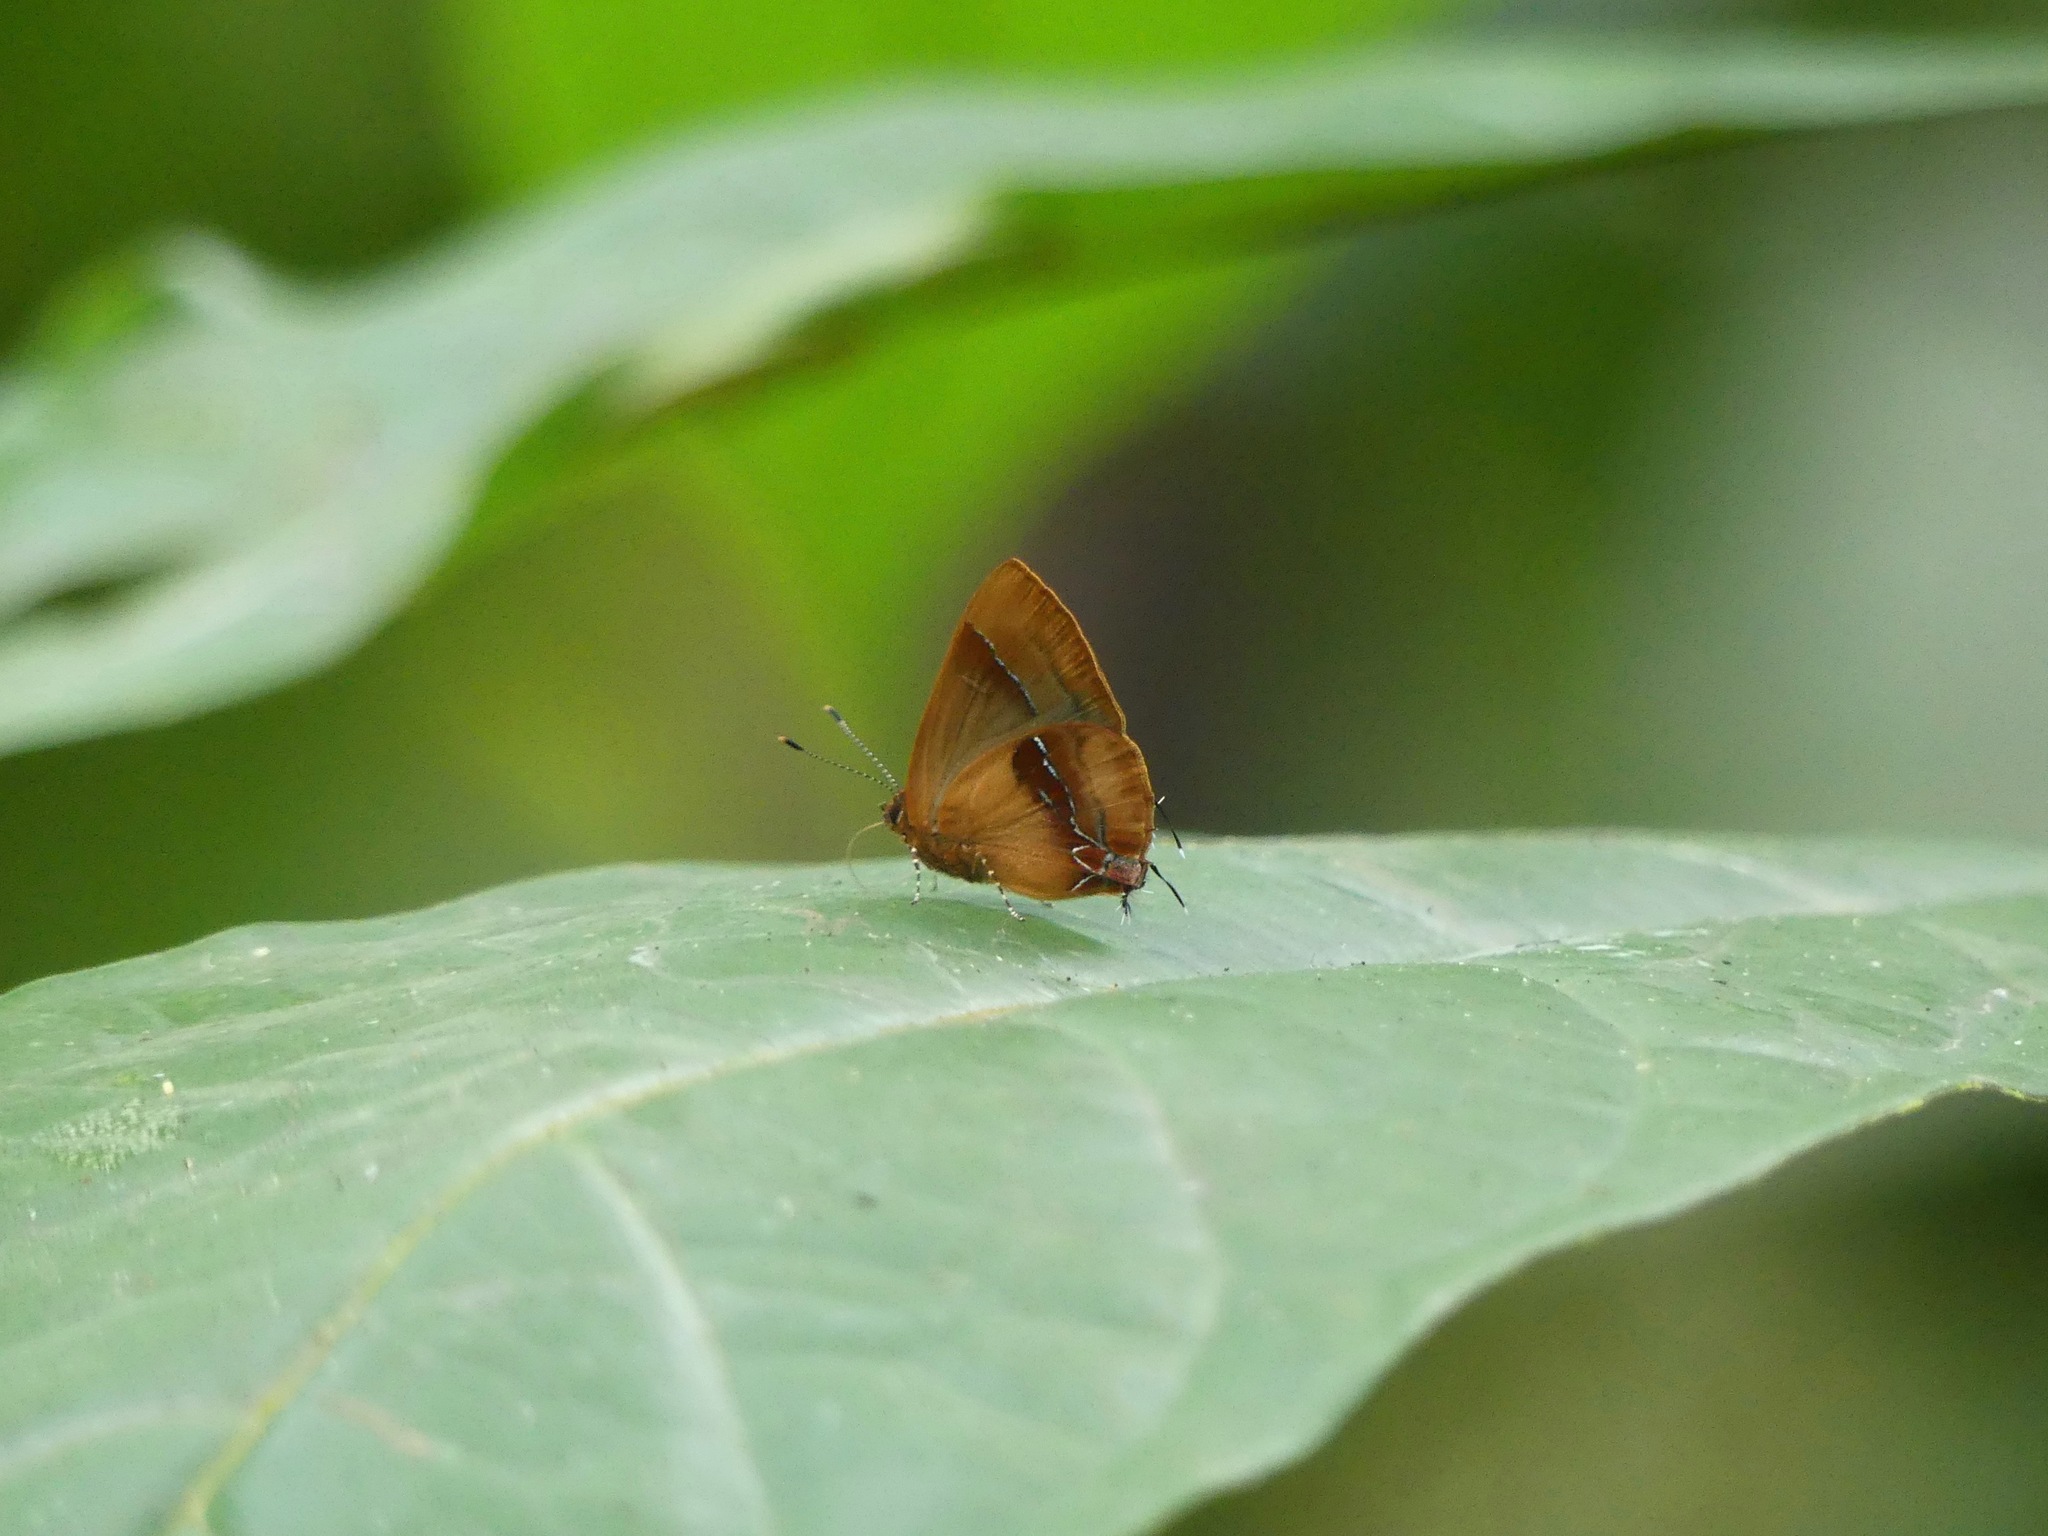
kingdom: Animalia
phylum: Arthropoda
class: Insecta
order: Lepidoptera
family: Lycaenidae
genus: Thecla
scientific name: Thecla demonassa
